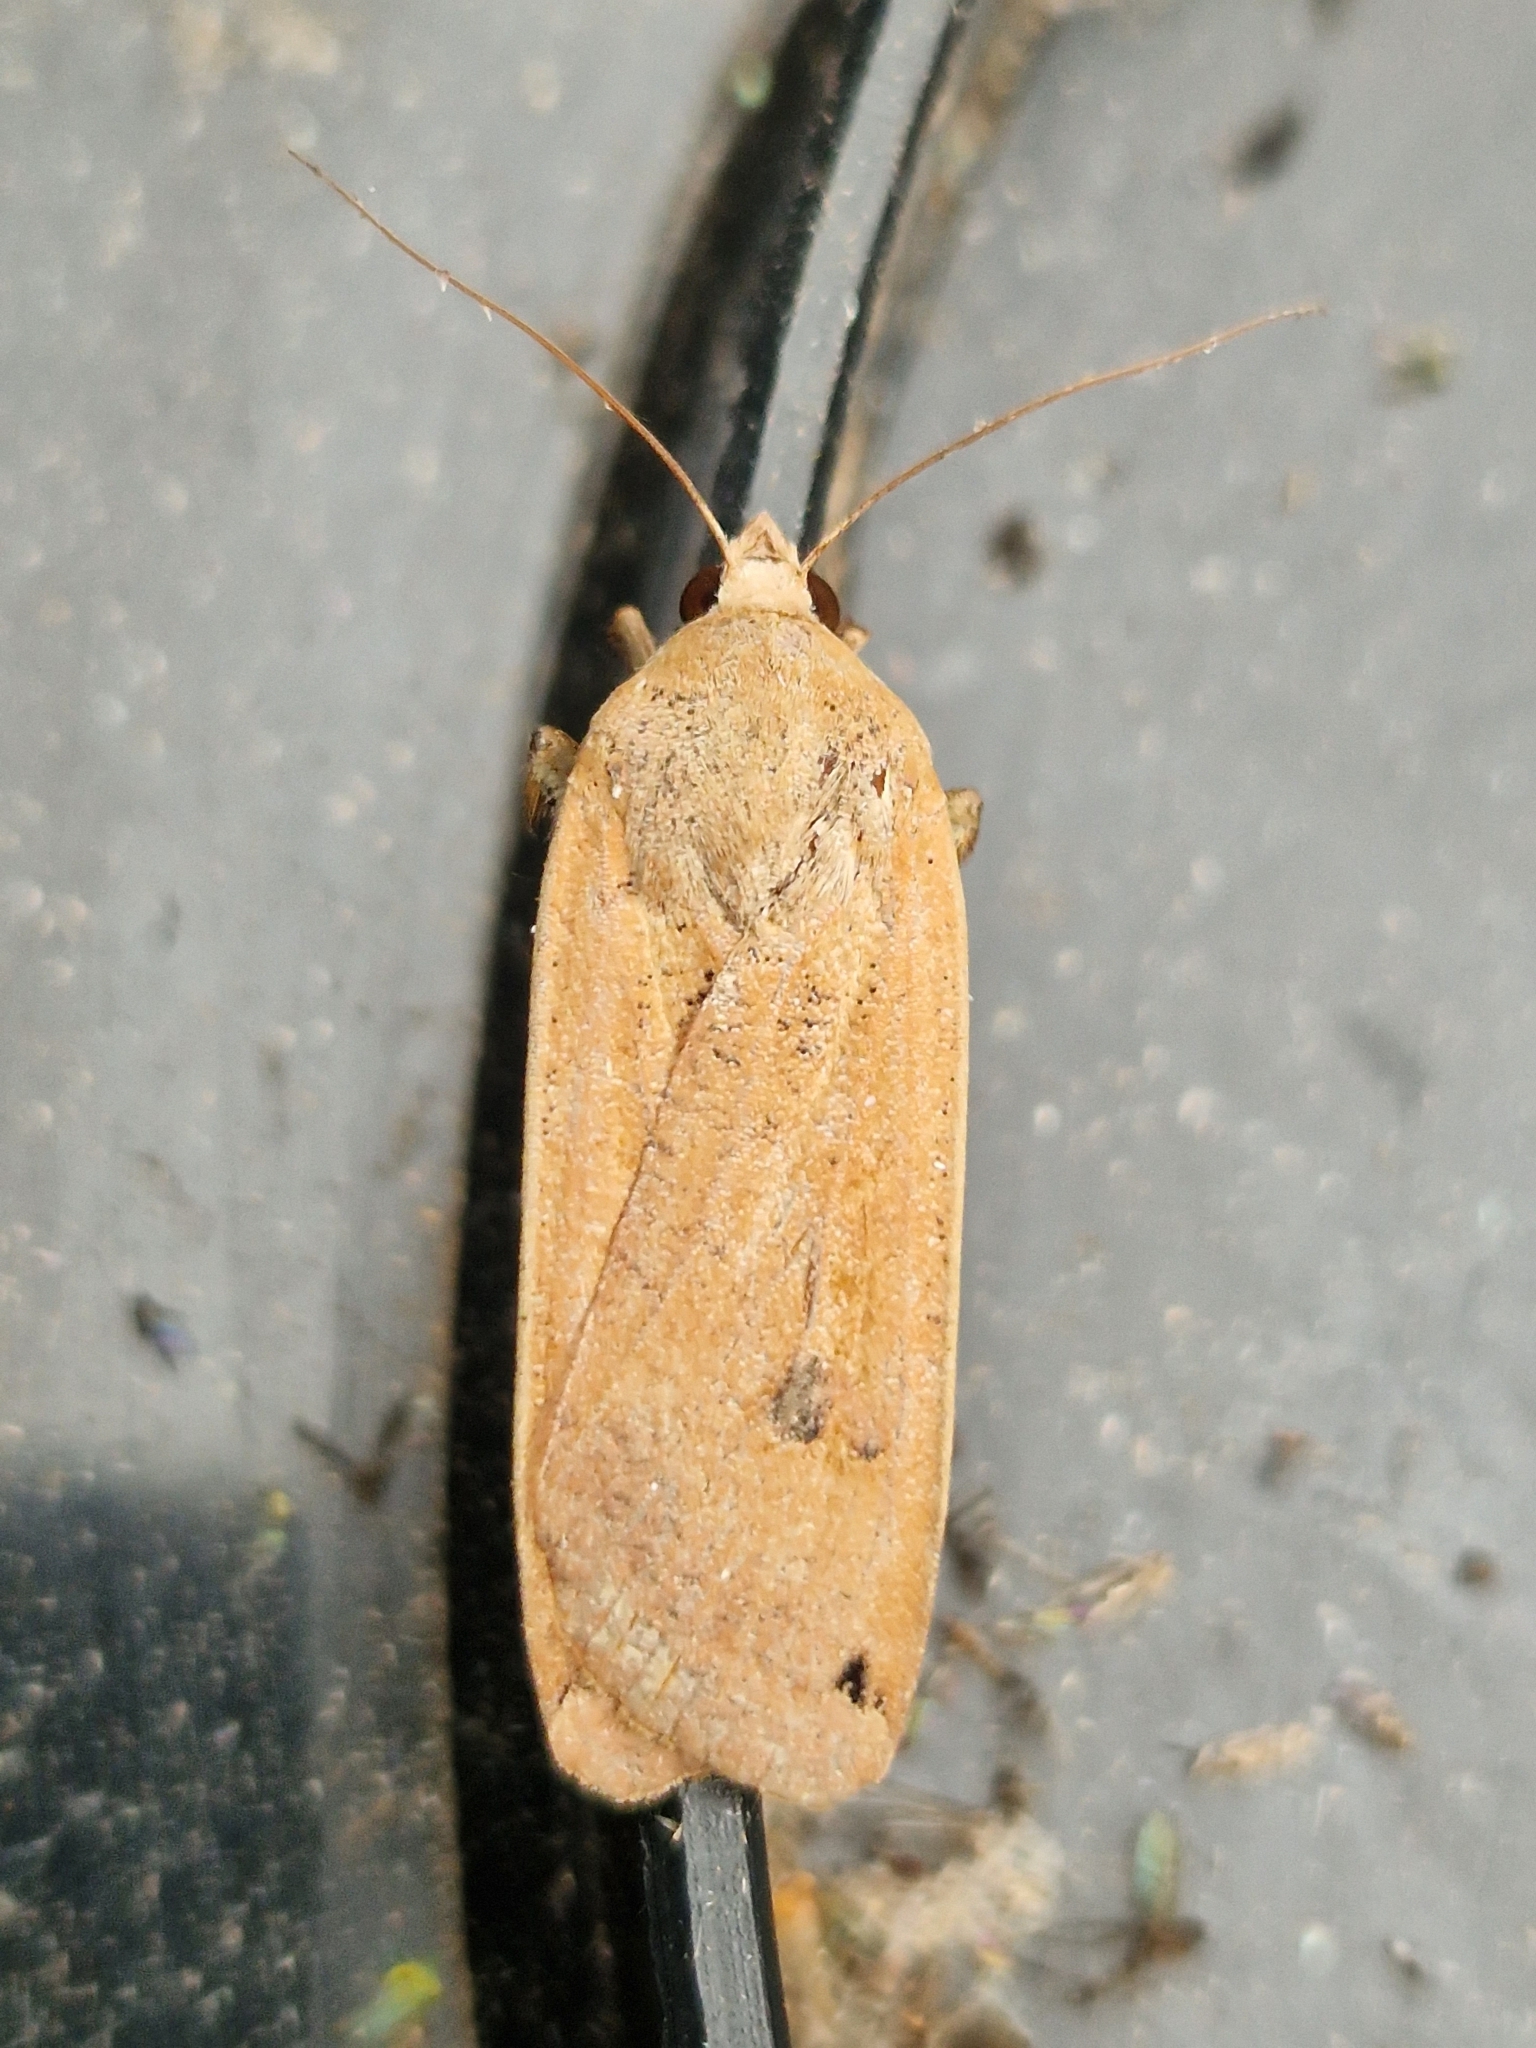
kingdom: Animalia
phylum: Arthropoda
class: Insecta
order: Lepidoptera
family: Noctuidae
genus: Noctua
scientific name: Noctua pronuba
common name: Large yellow underwing
